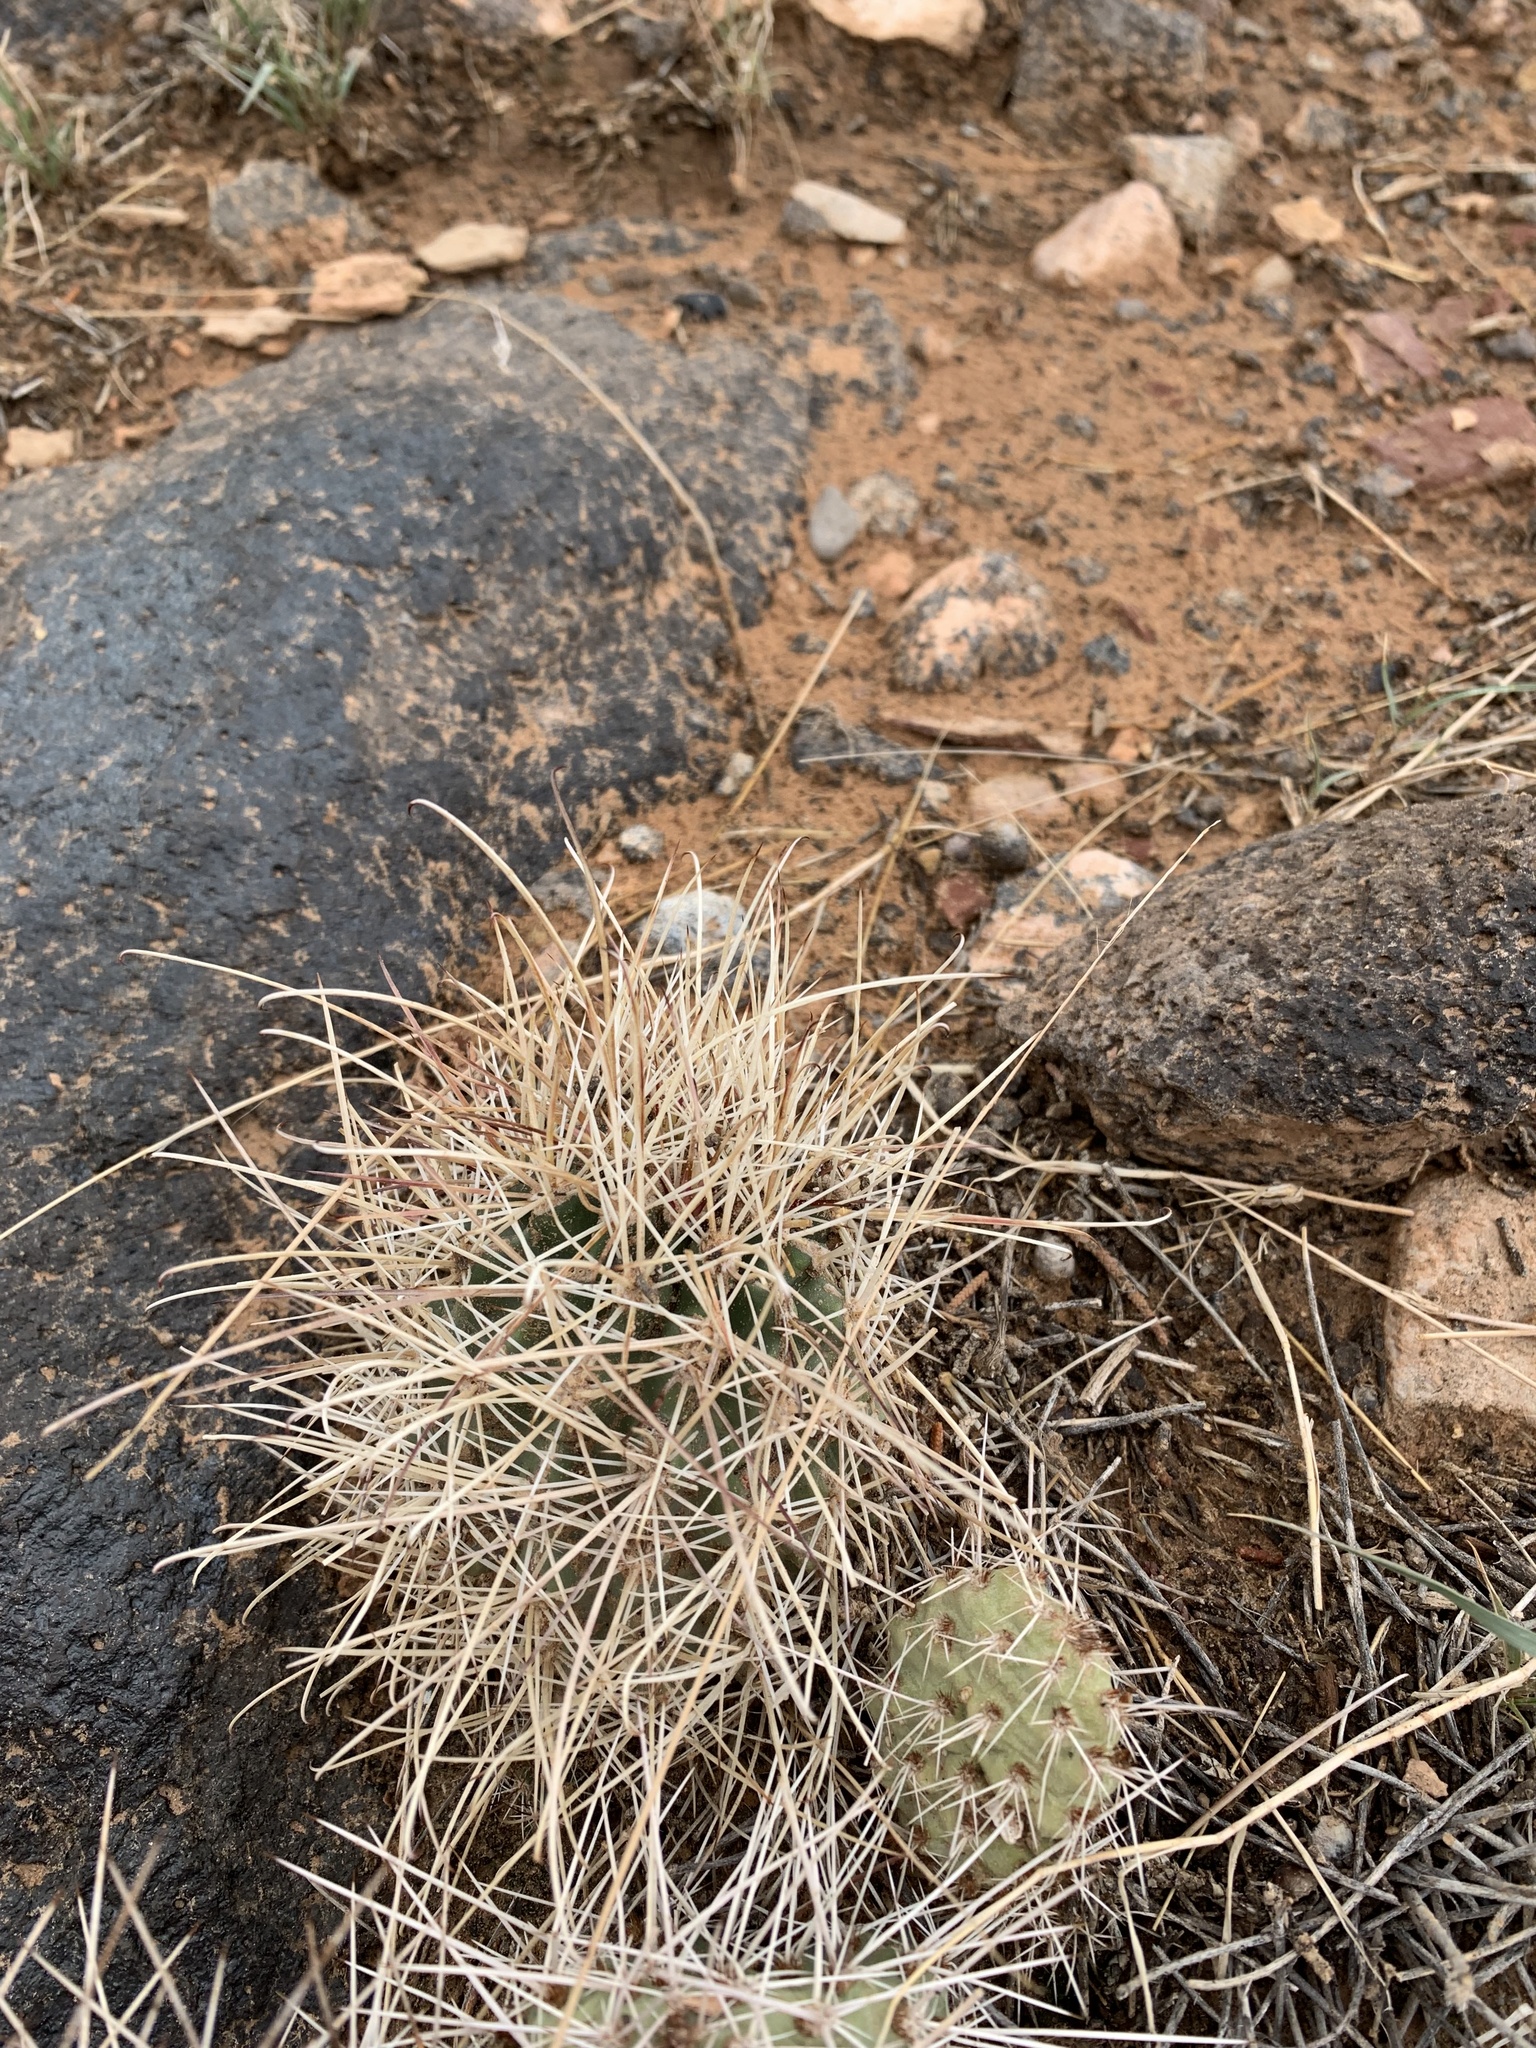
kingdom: Plantae
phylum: Tracheophyta
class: Magnoliopsida
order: Caryophyllales
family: Cactaceae
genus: Sclerocactus
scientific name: Sclerocactus parviflorus
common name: Small-flower fishhook cactus
